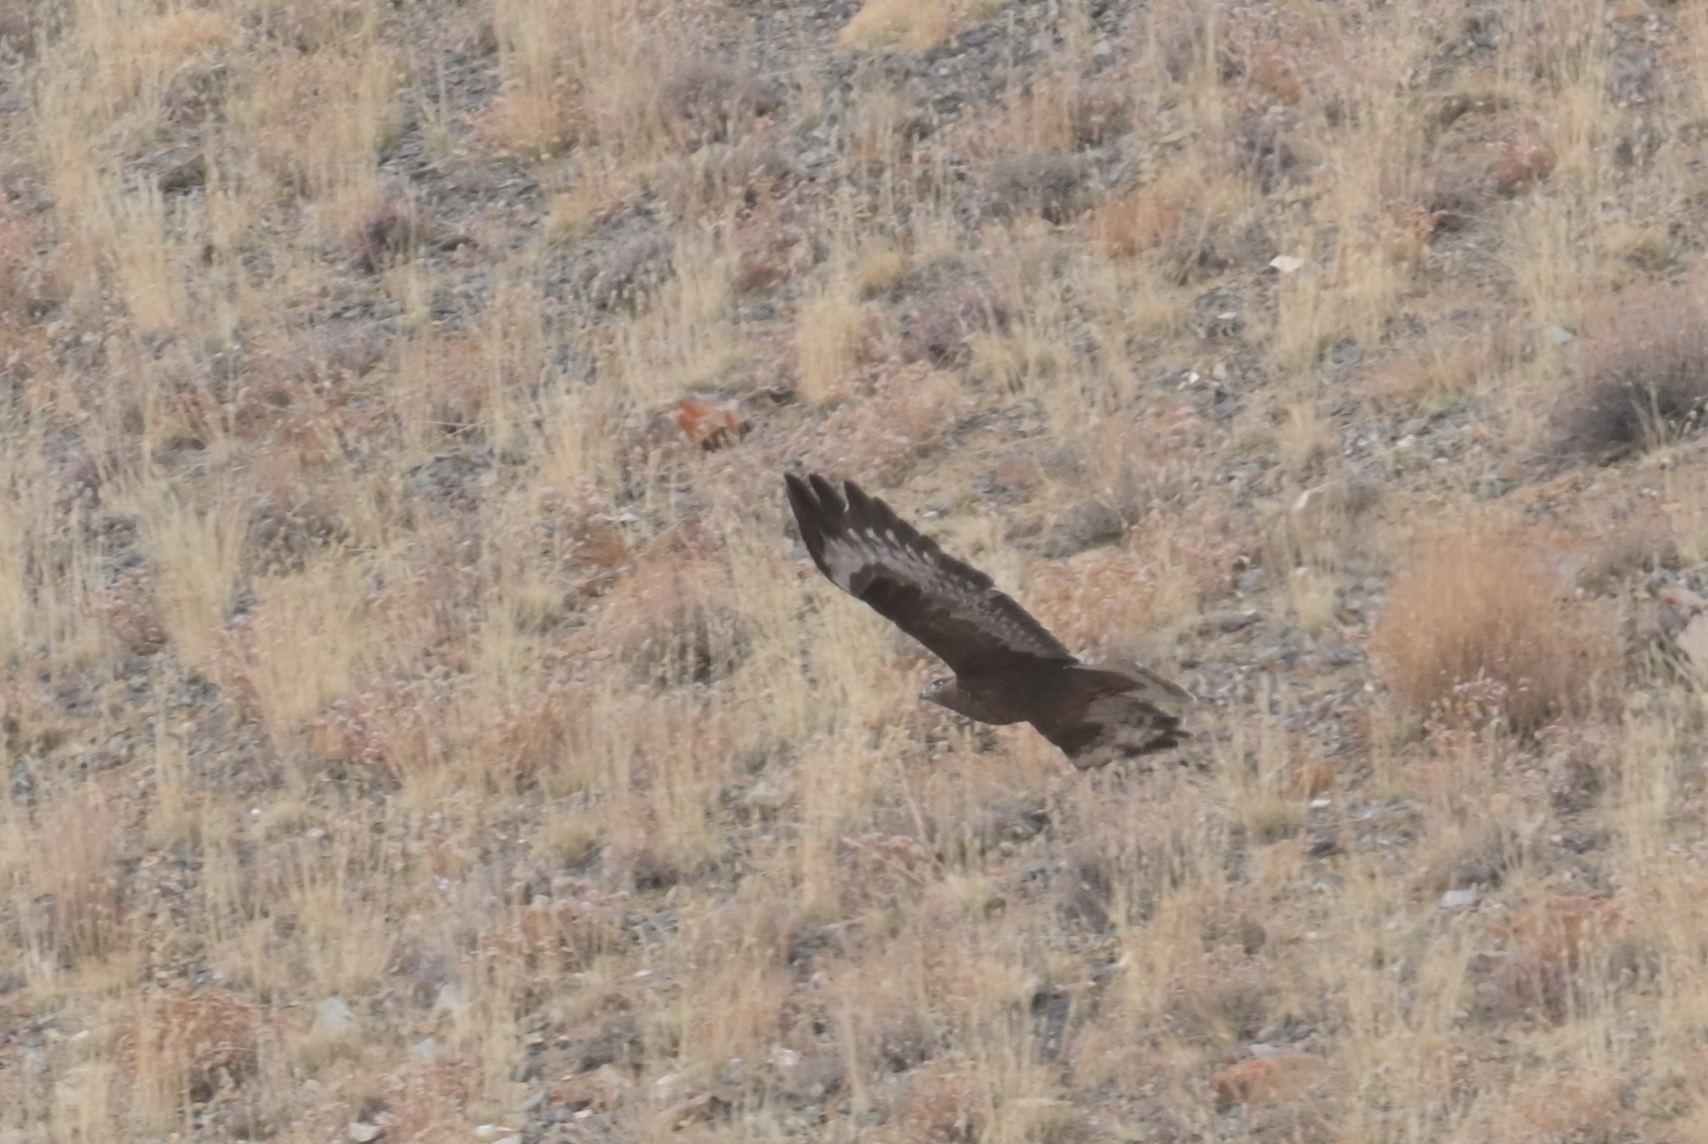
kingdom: Animalia
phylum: Chordata
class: Aves
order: Accipitriformes
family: Accipitridae
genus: Buteo
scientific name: Buteo hemilasius
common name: Upland buzzard
